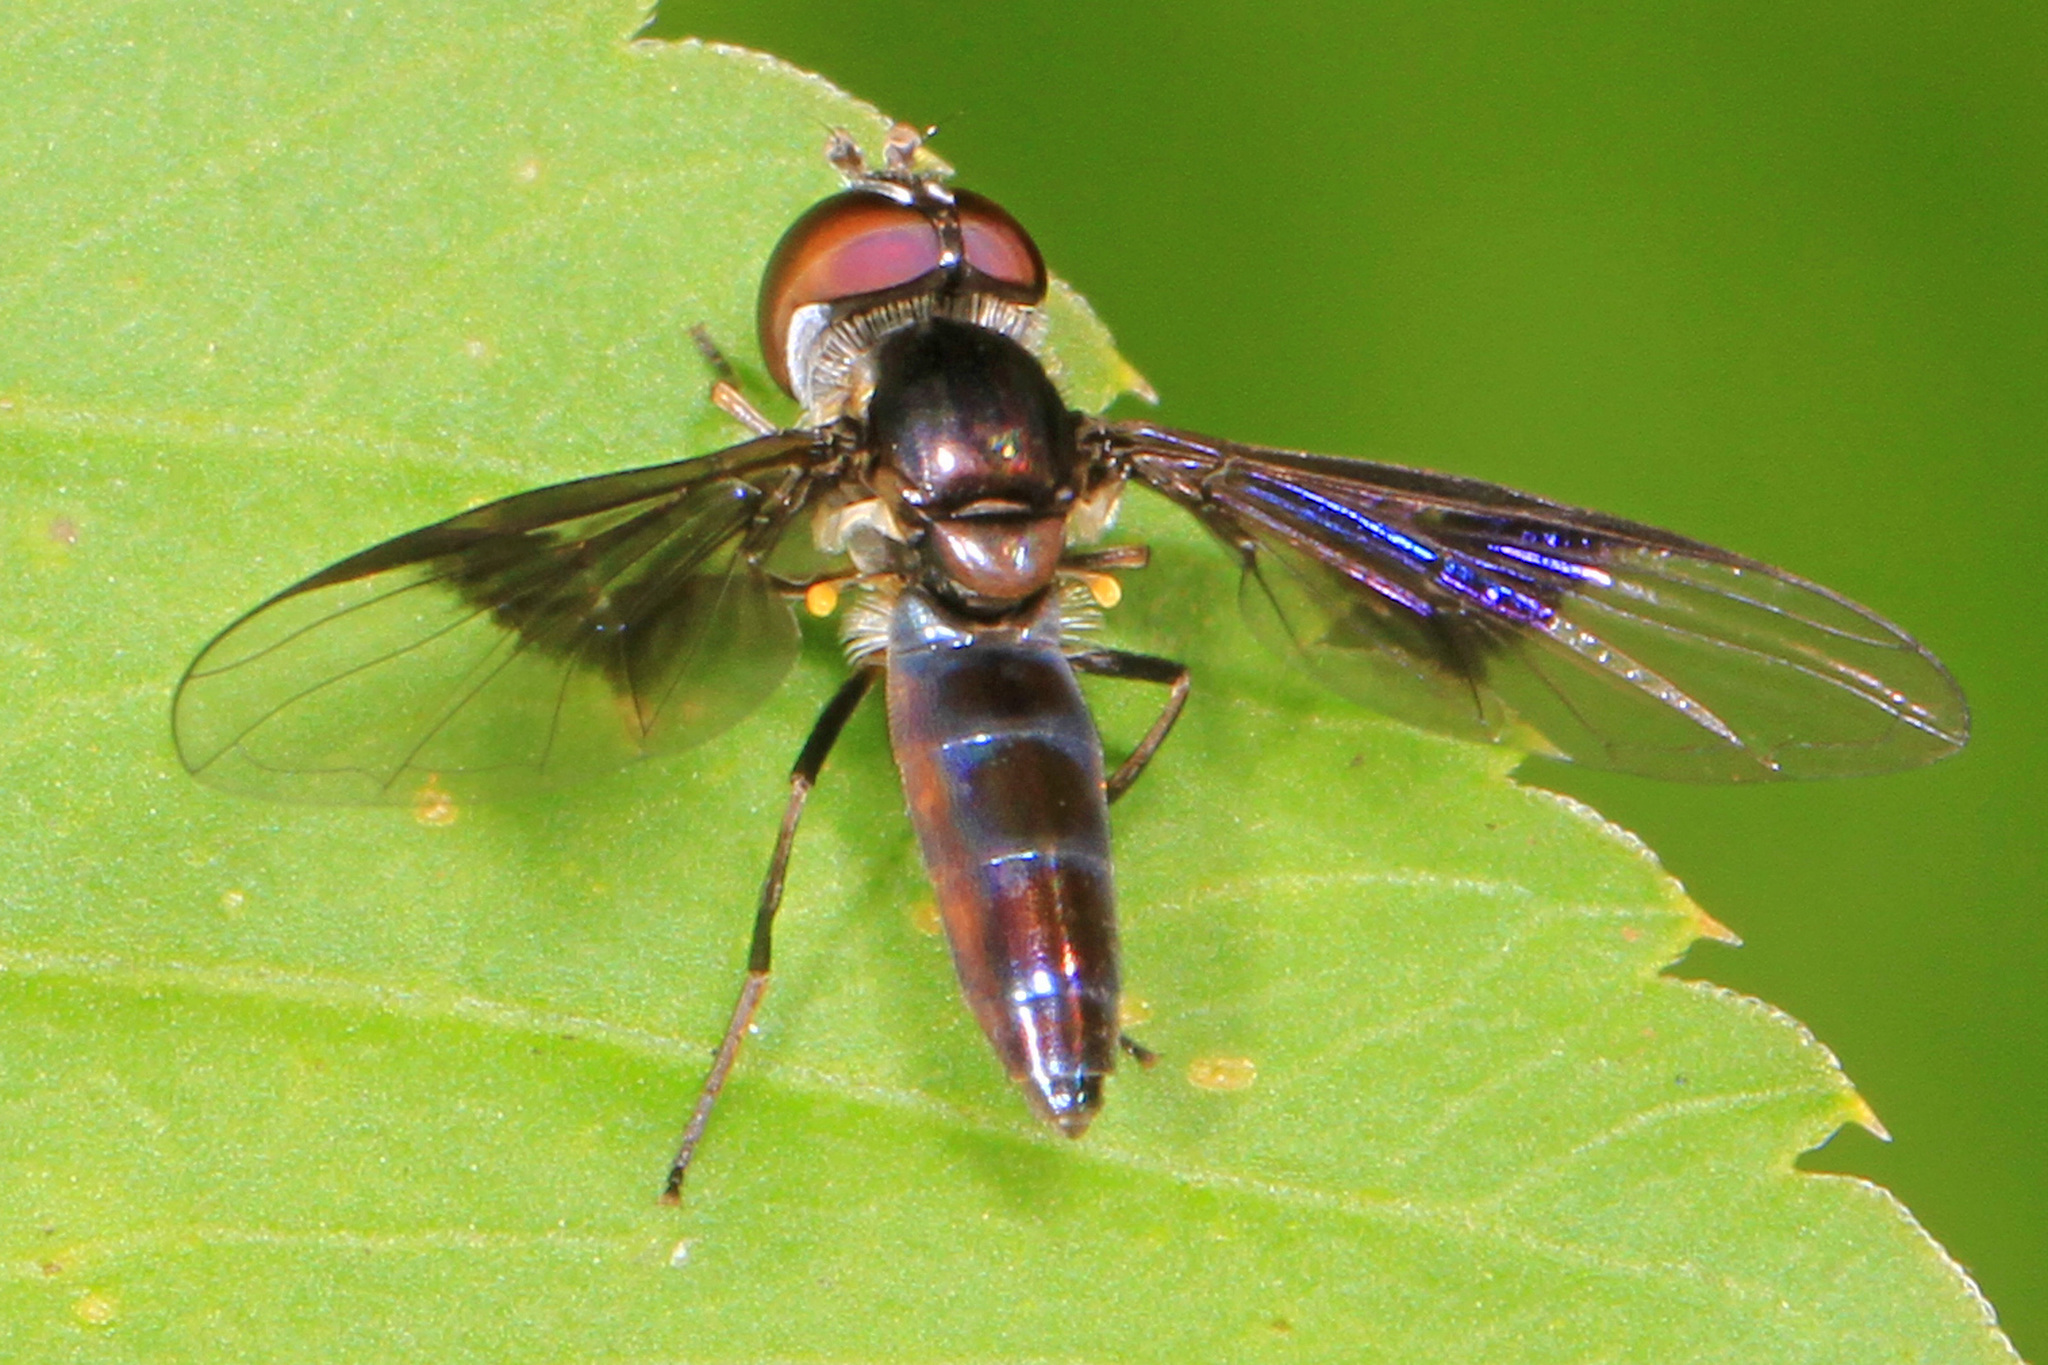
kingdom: Animalia
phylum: Arthropoda
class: Insecta
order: Diptera
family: Syrphidae
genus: Ocyptamus
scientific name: Ocyptamus dimidiatus
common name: Syrphid fly
